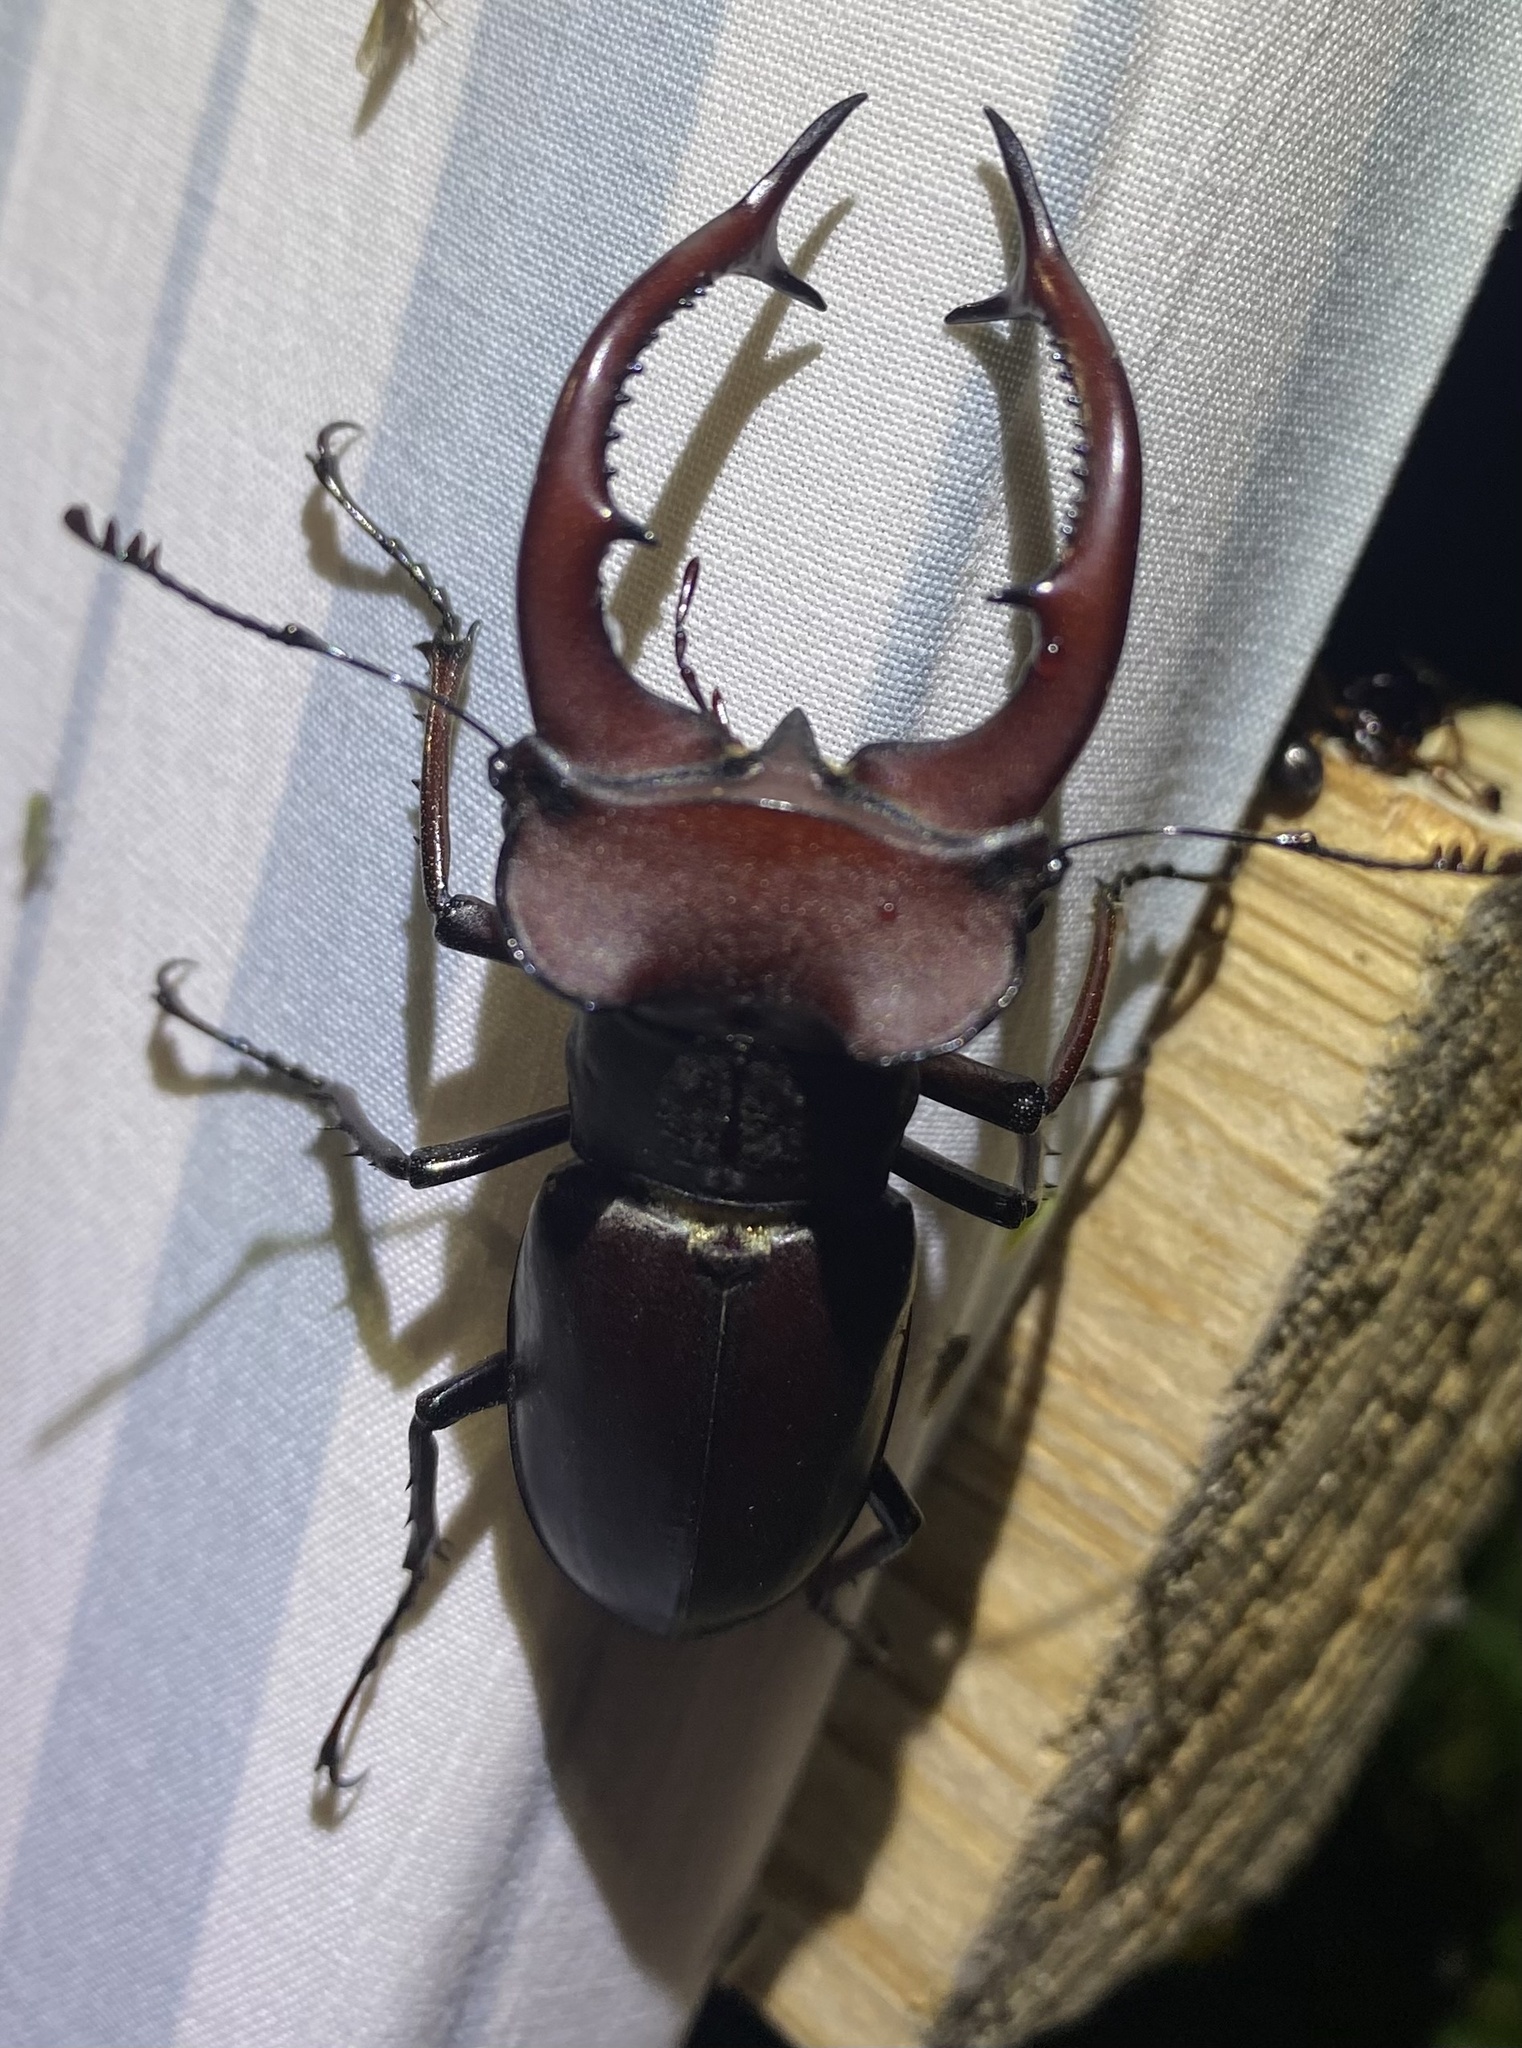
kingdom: Animalia
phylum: Arthropoda
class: Insecta
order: Coleoptera
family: Lucanidae
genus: Lucanus
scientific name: Lucanus elaphus
